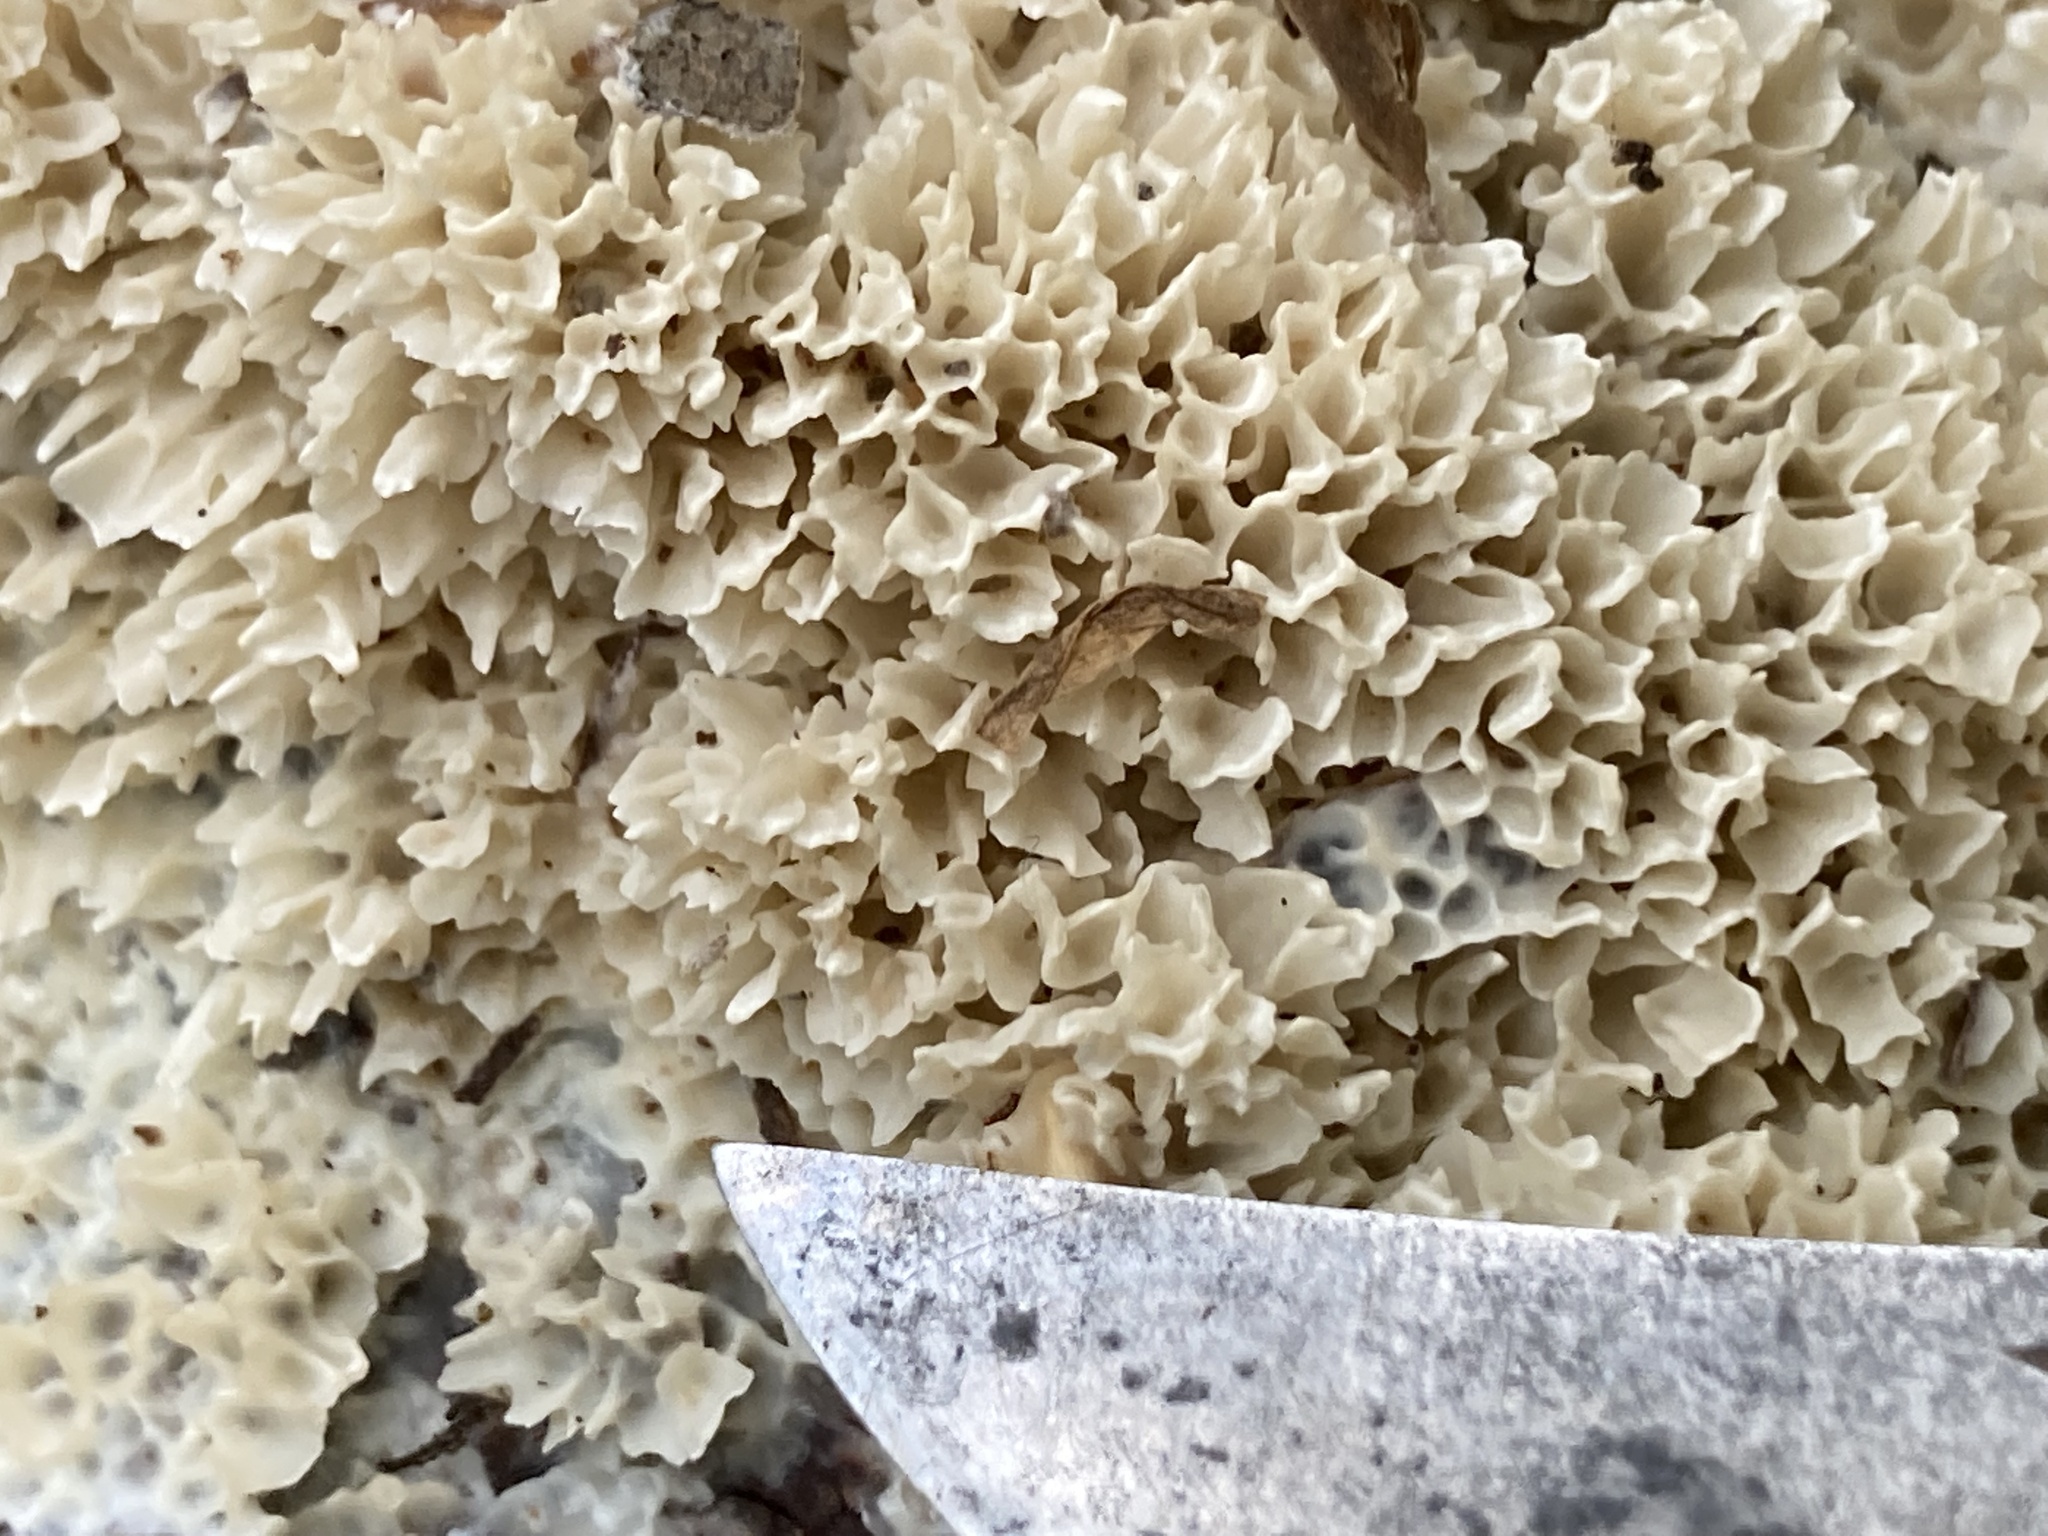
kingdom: Fungi
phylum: Basidiomycota
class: Agaricomycetes
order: Polyporales
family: Irpicaceae
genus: Irpex
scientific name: Irpex rosettiformis
